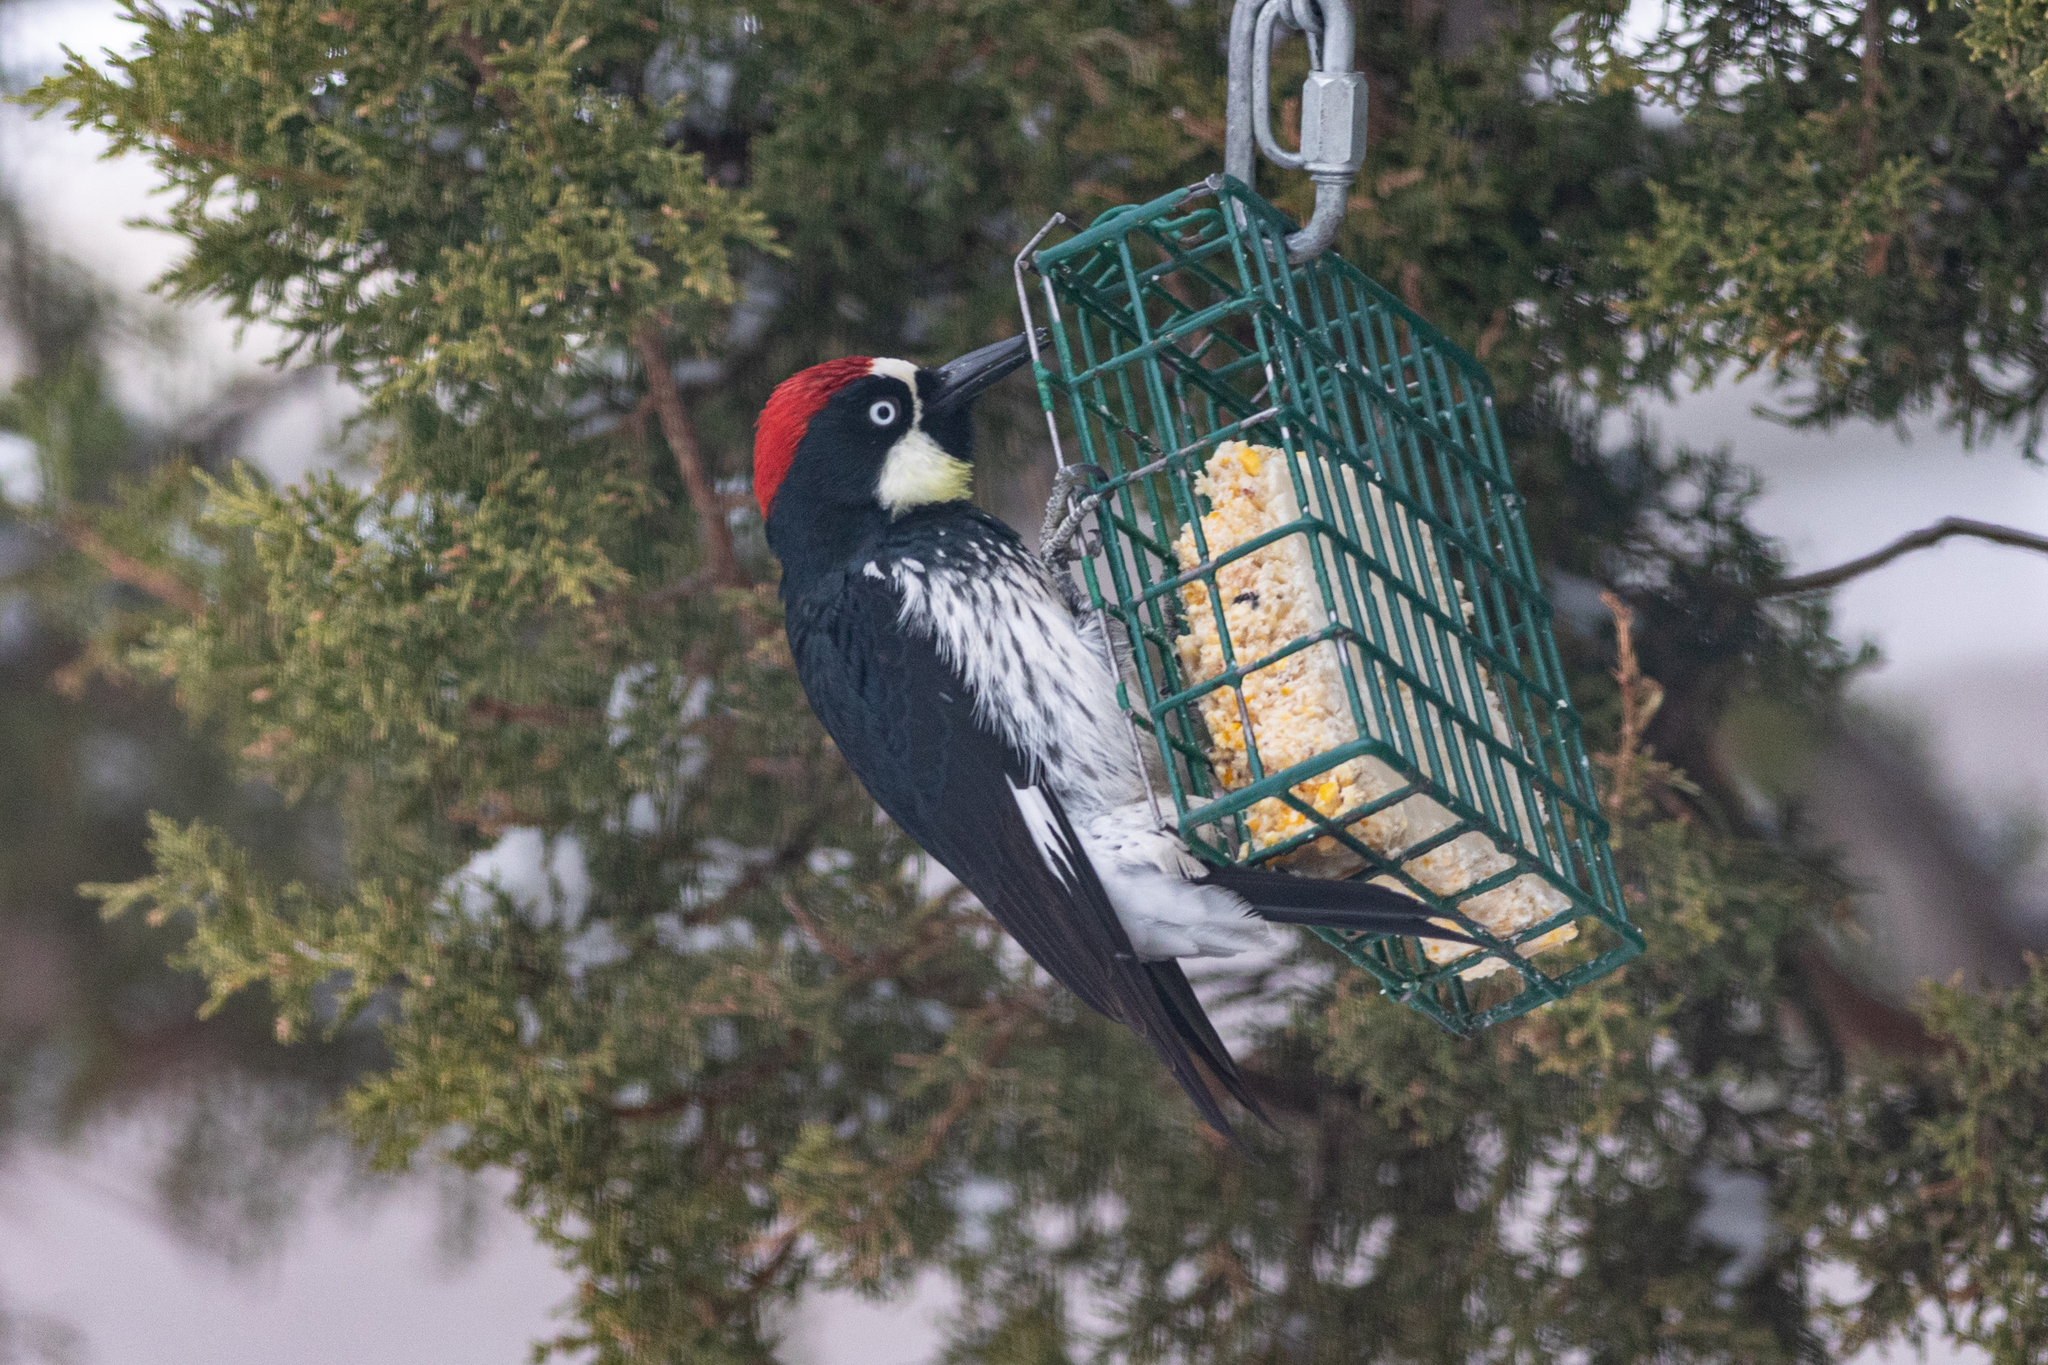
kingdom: Animalia
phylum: Chordata
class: Aves
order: Piciformes
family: Picidae
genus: Melanerpes
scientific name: Melanerpes formicivorus
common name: Acorn woodpecker
